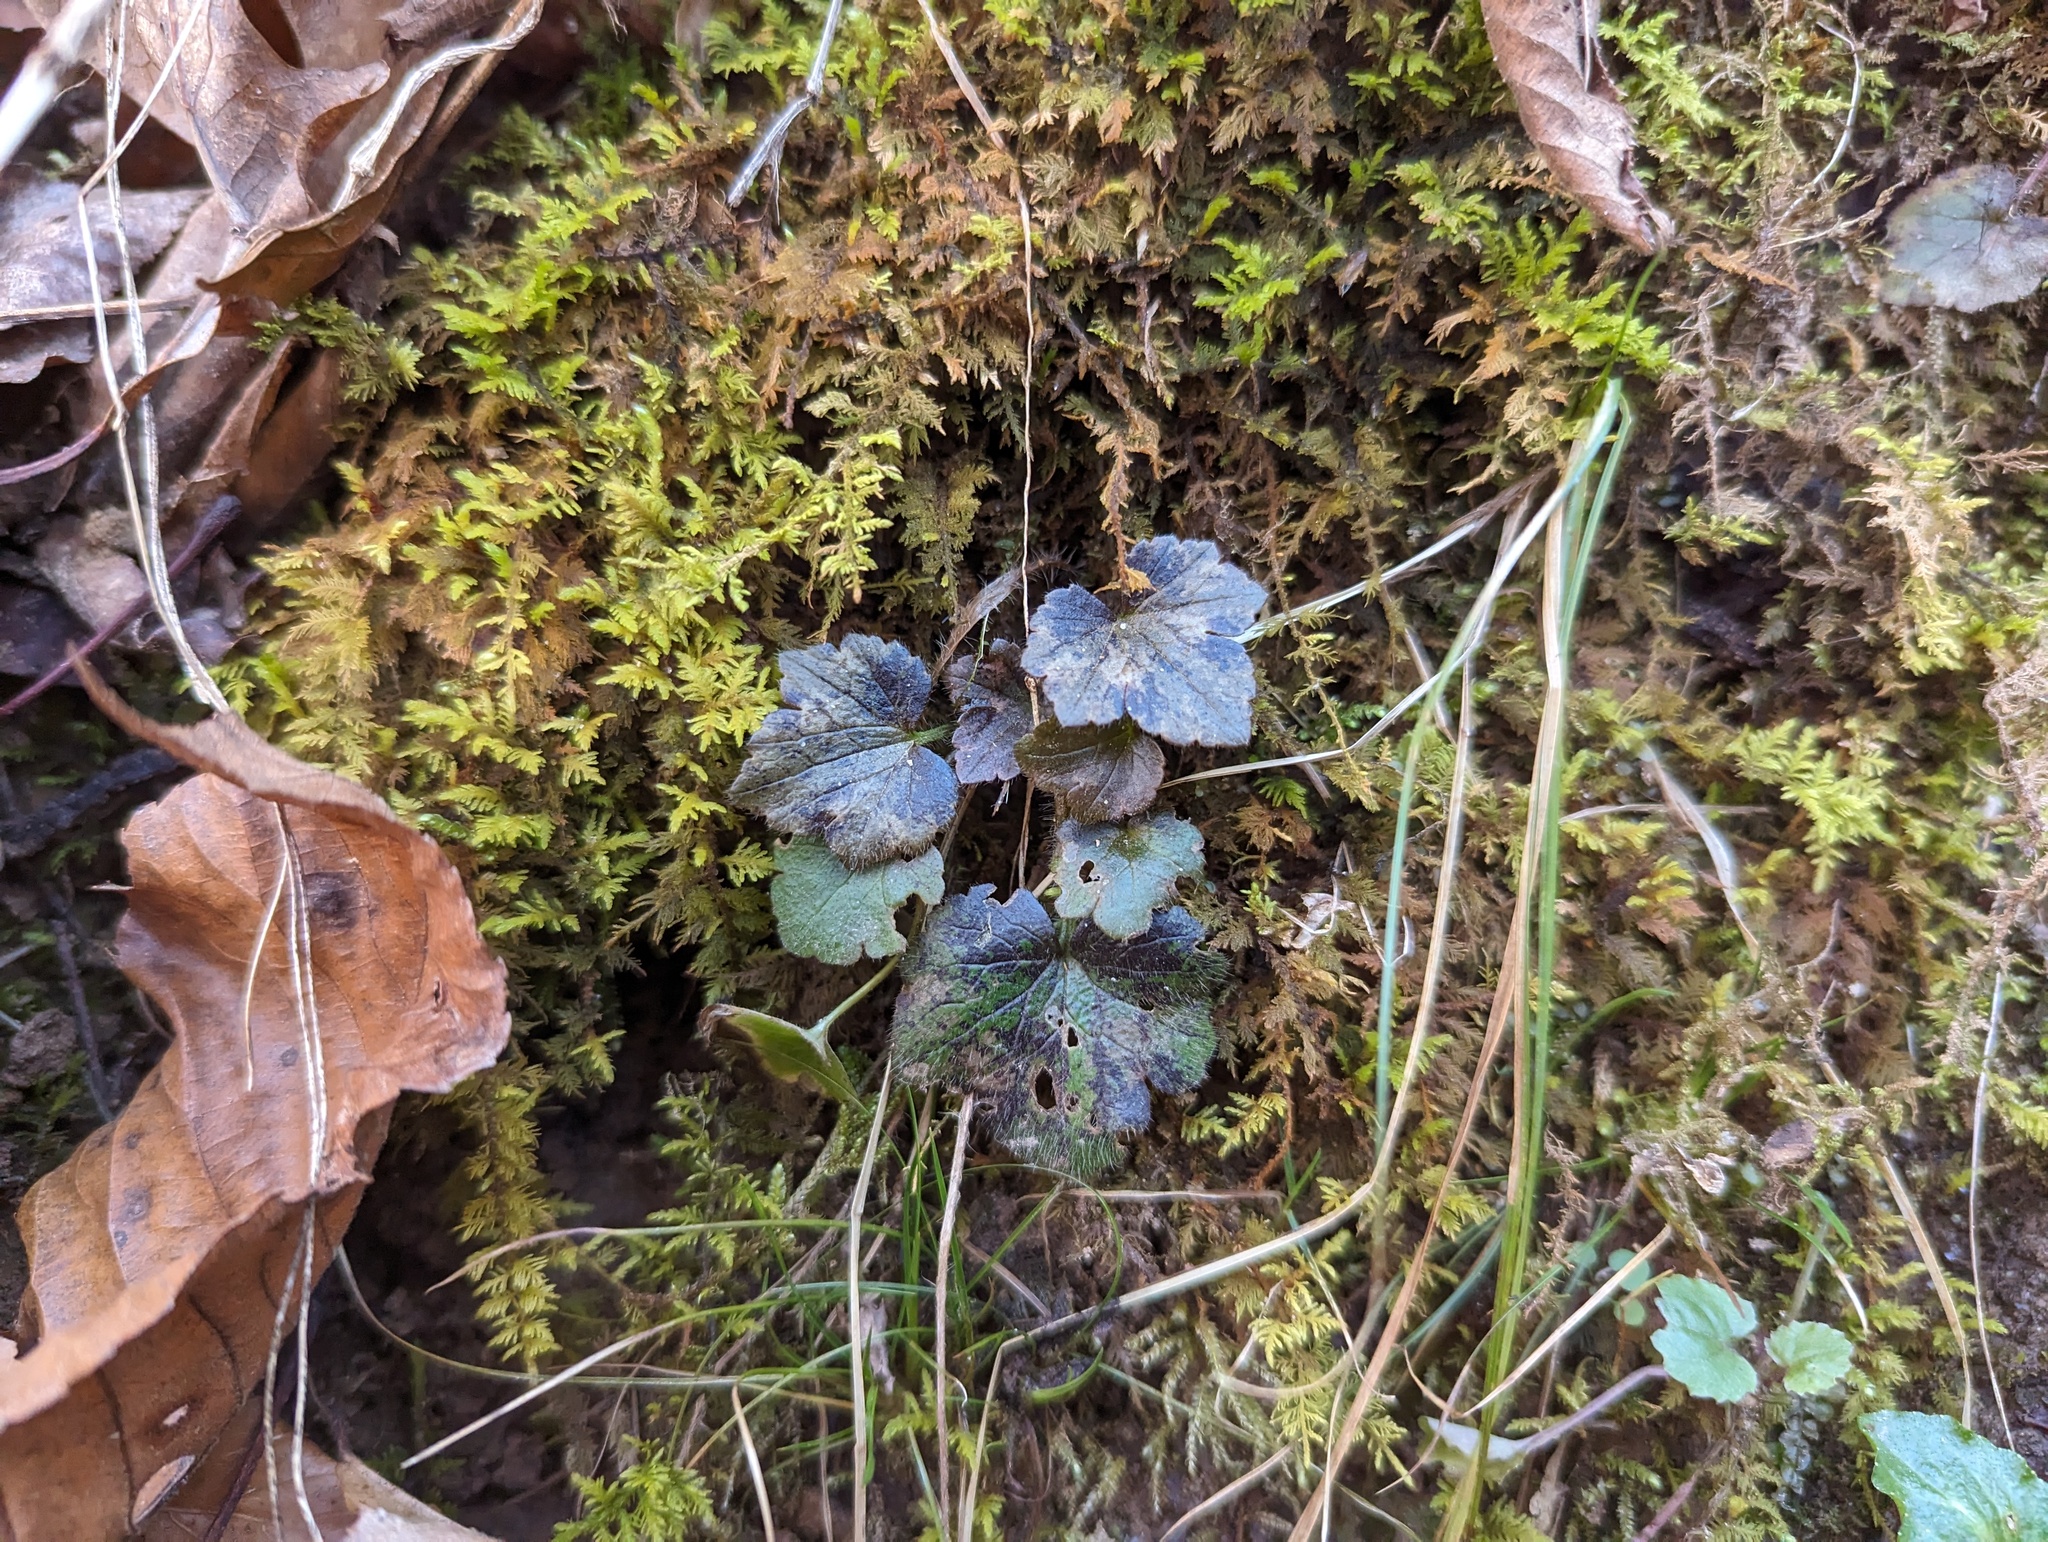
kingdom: Plantae
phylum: Tracheophyta
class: Magnoliopsida
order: Saxifragales
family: Saxifragaceae
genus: Mitella
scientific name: Mitella diphylla
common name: Coolwort
